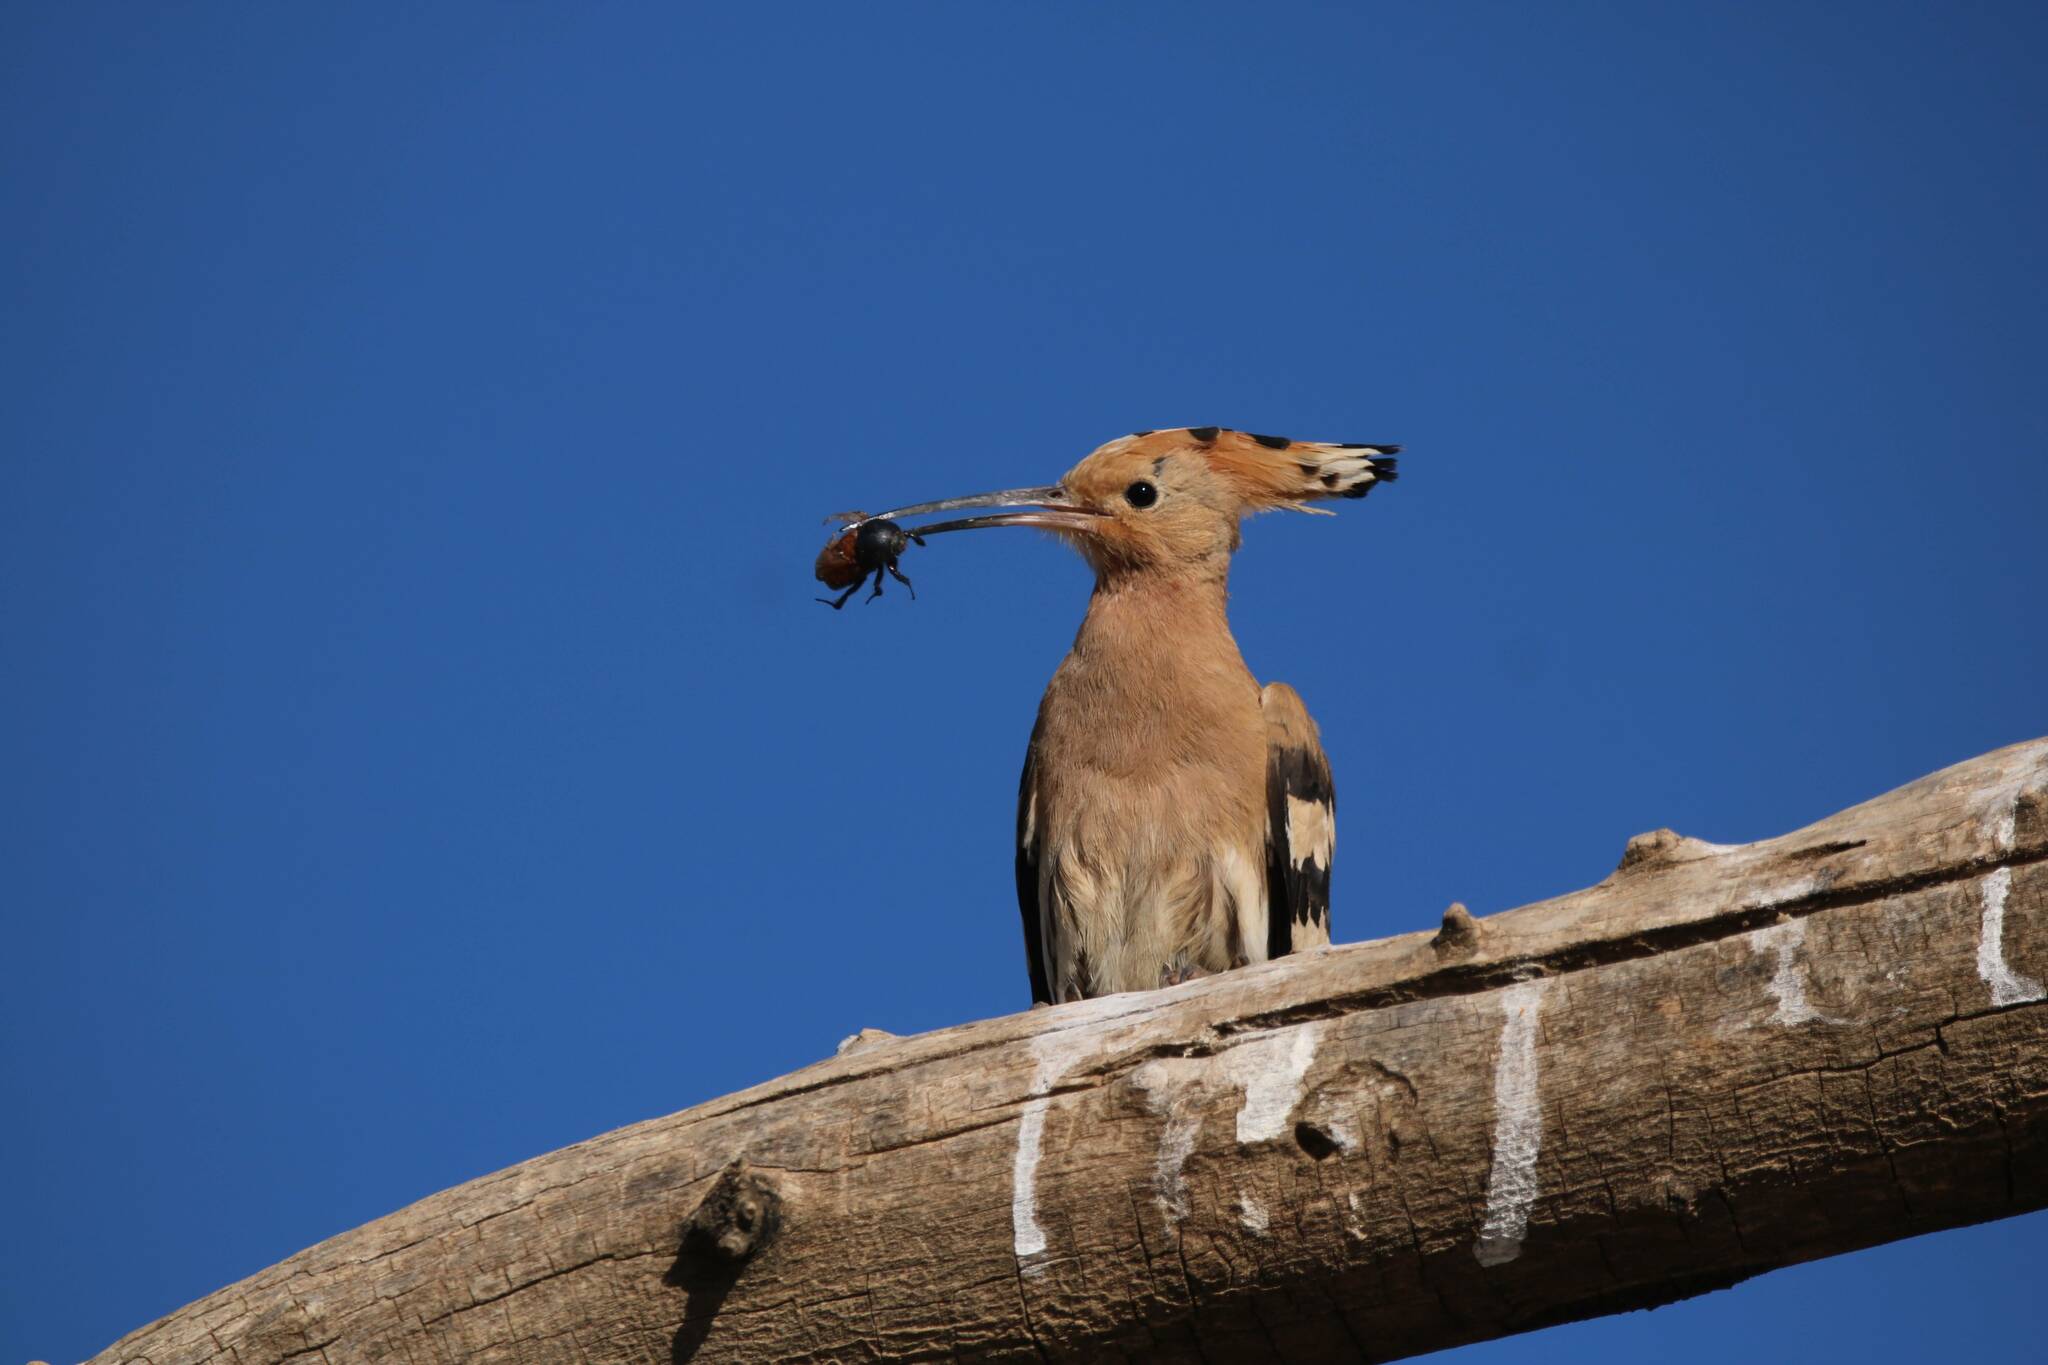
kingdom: Animalia
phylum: Chordata
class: Aves
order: Bucerotiformes
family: Upupidae
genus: Upupa
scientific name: Upupa epops
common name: Eurasian hoopoe
